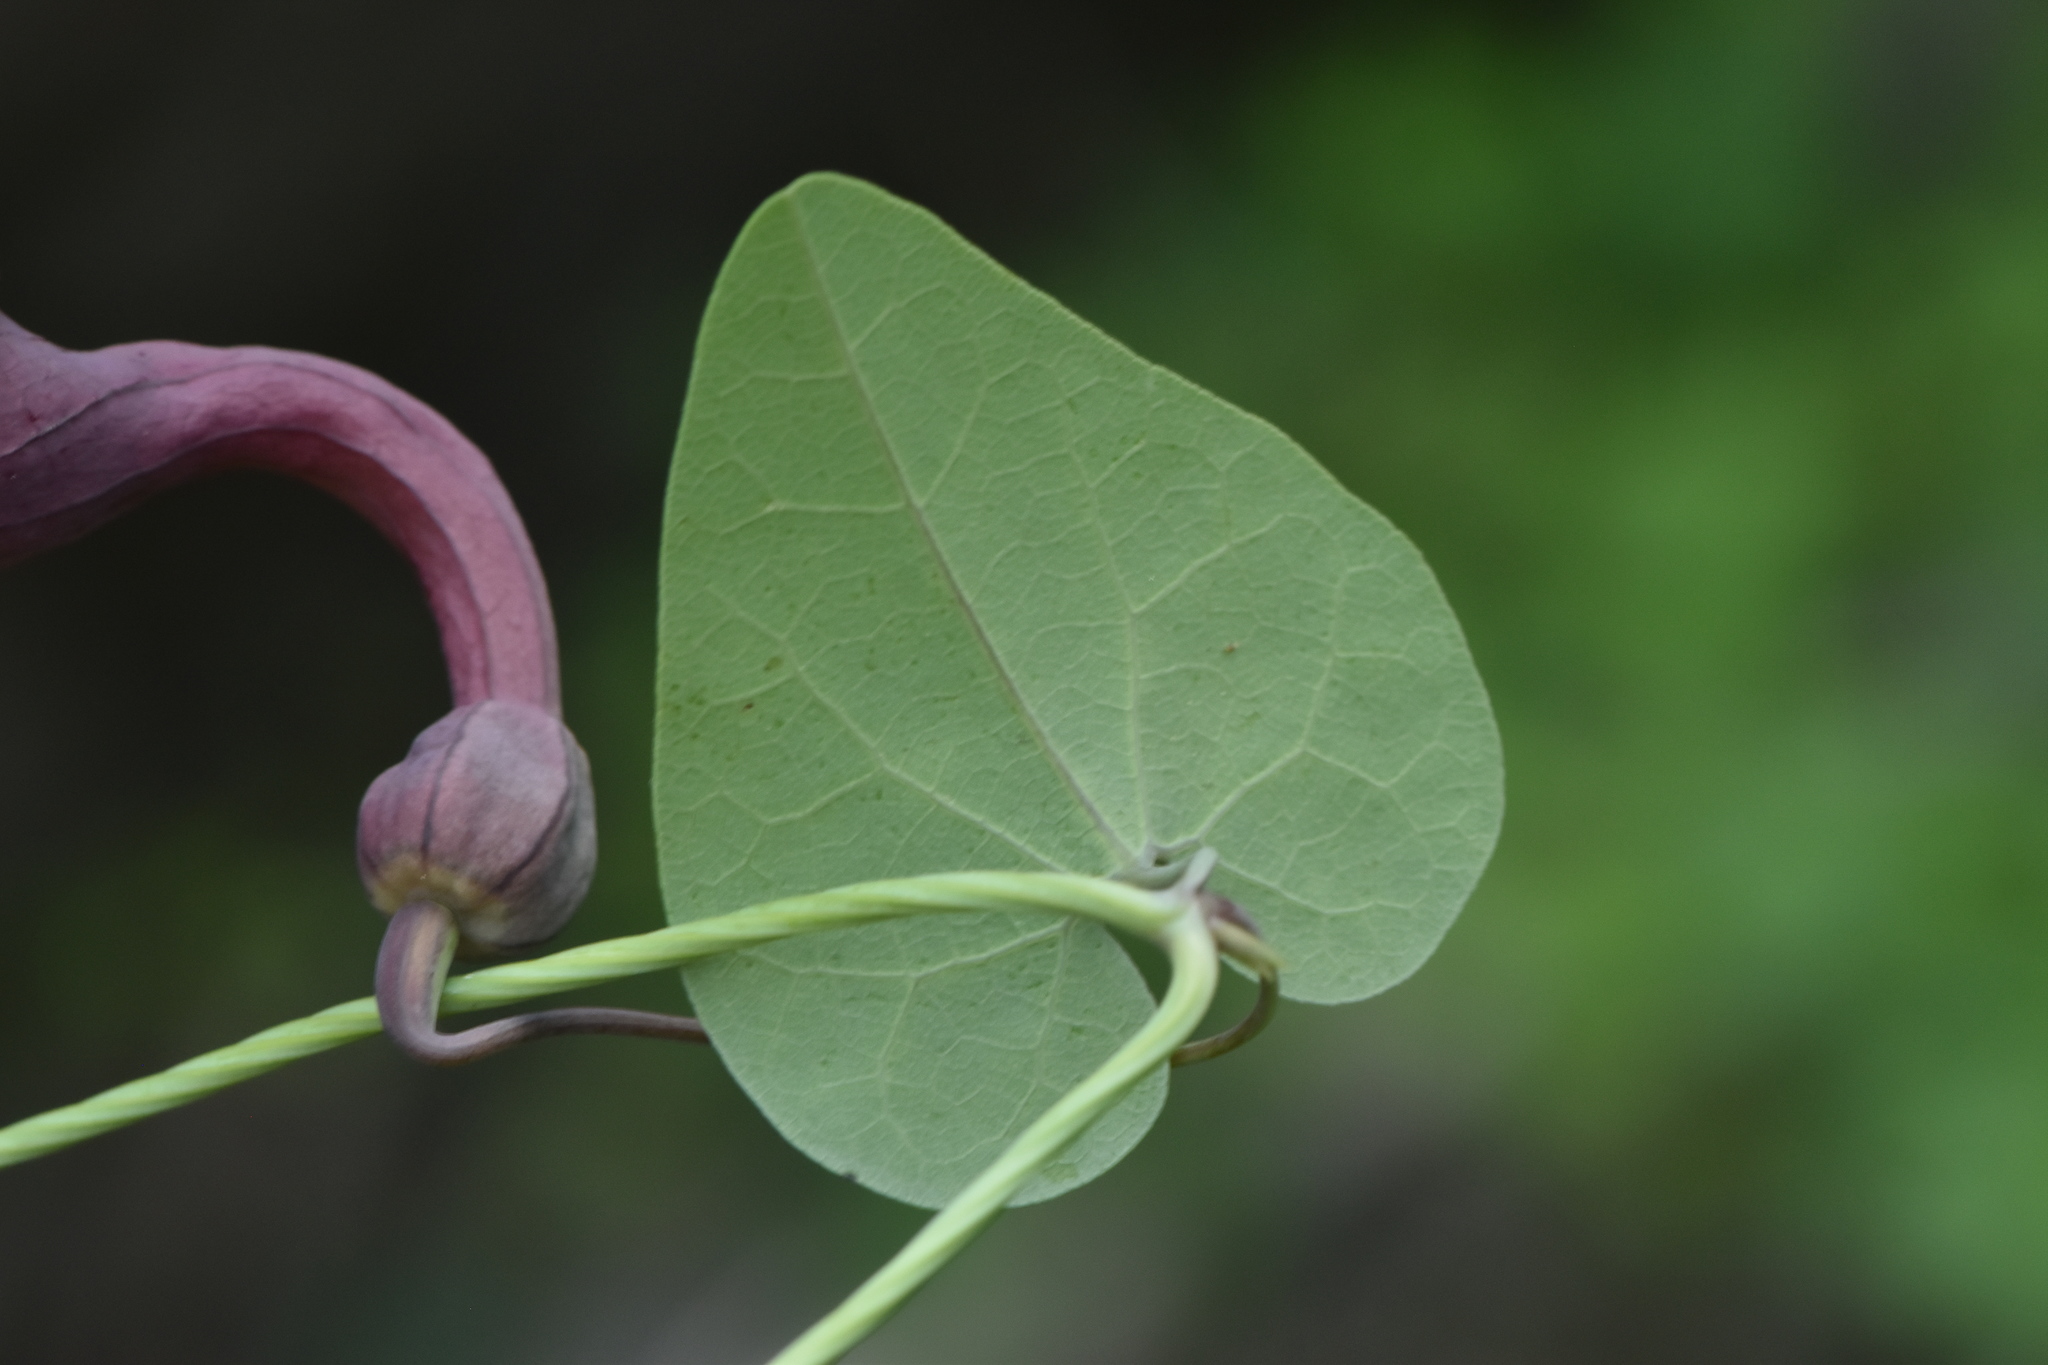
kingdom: Plantae
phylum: Tracheophyta
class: Magnoliopsida
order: Piperales
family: Aristolochiaceae
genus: Aristolochia
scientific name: Aristolochia baetica
